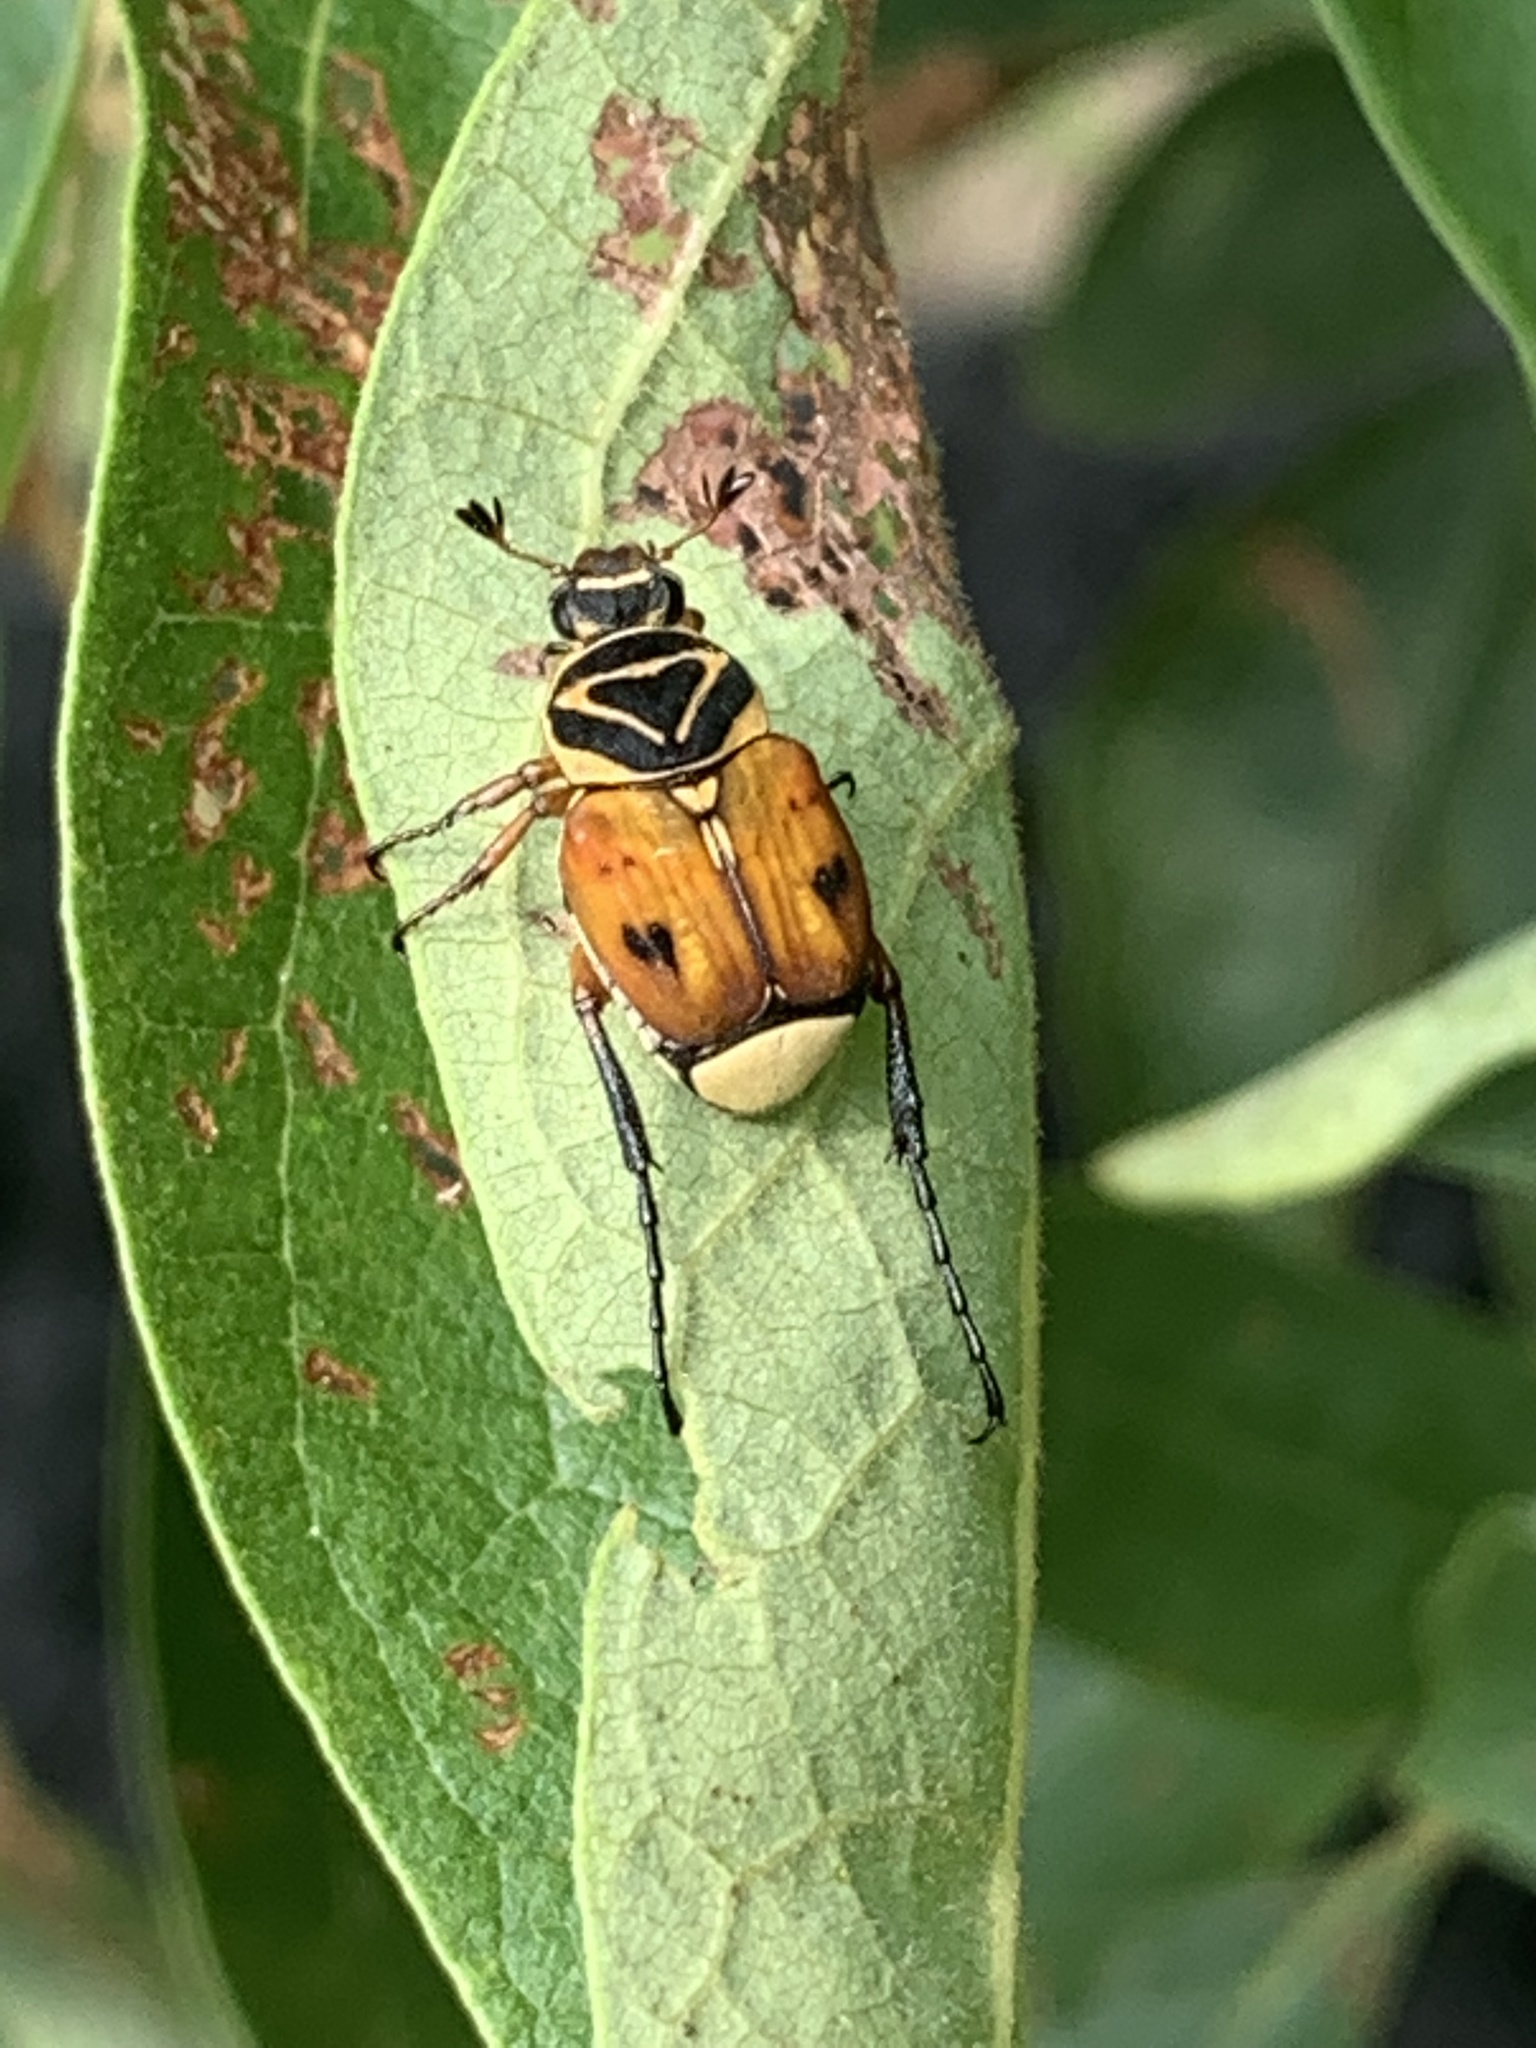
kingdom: Animalia
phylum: Arthropoda
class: Insecta
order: Coleoptera
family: Scarabaeidae
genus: Trigonopeltastes
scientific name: Trigonopeltastes delta
